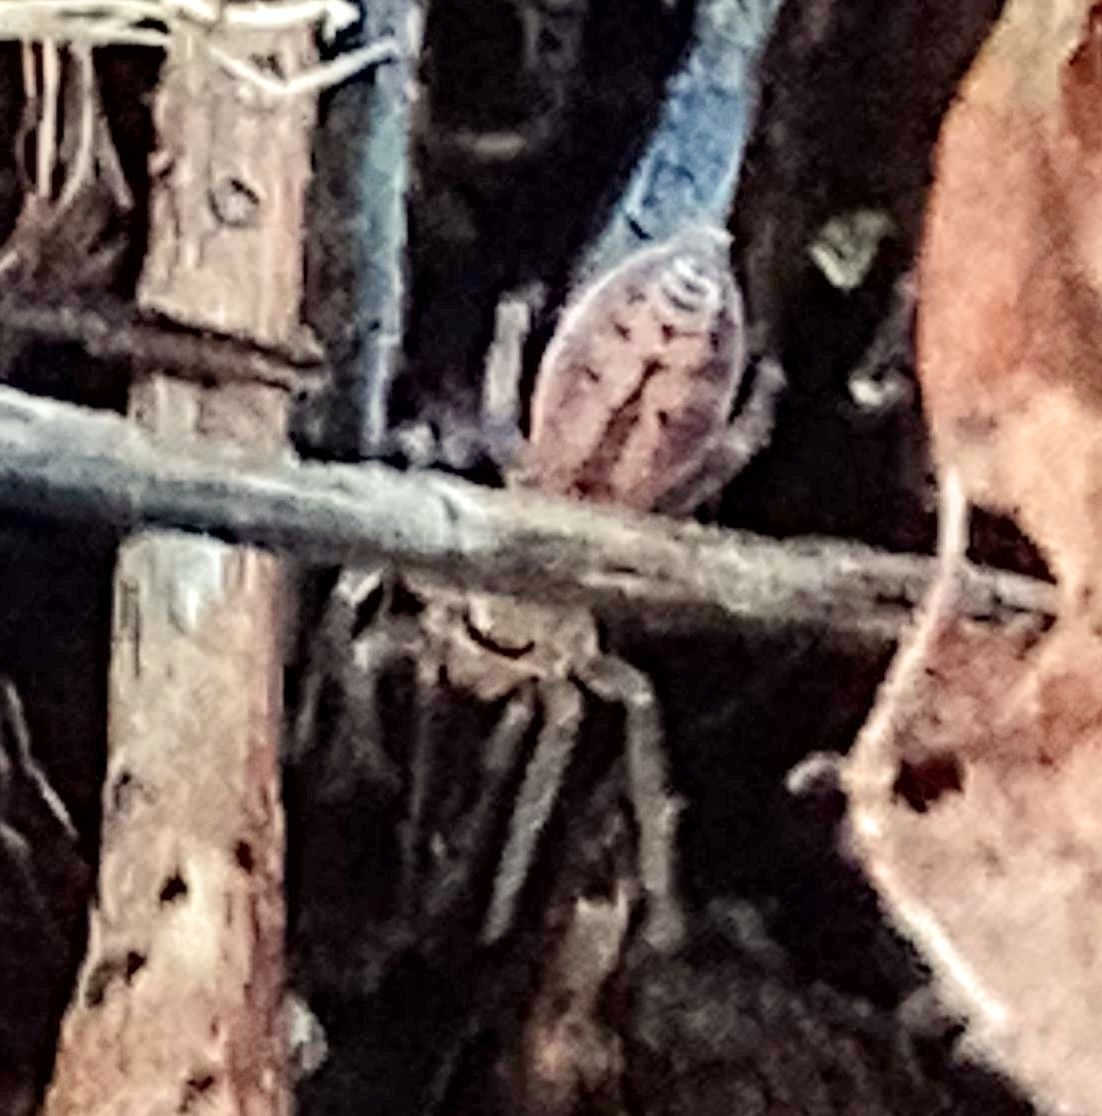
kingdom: Animalia
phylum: Arthropoda
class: Arachnida
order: Araneae
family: Clubionidae
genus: Clubiona
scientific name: Clubiona comta
